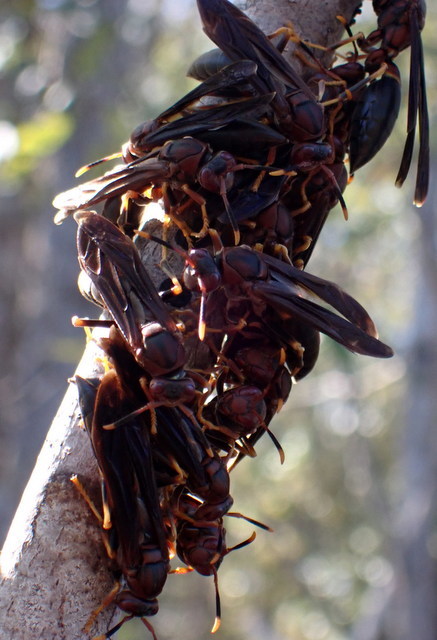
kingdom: Animalia
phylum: Arthropoda
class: Insecta
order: Hymenoptera
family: Eumenidae
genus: Polistes
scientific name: Polistes annularis
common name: Ringed paper wasp
